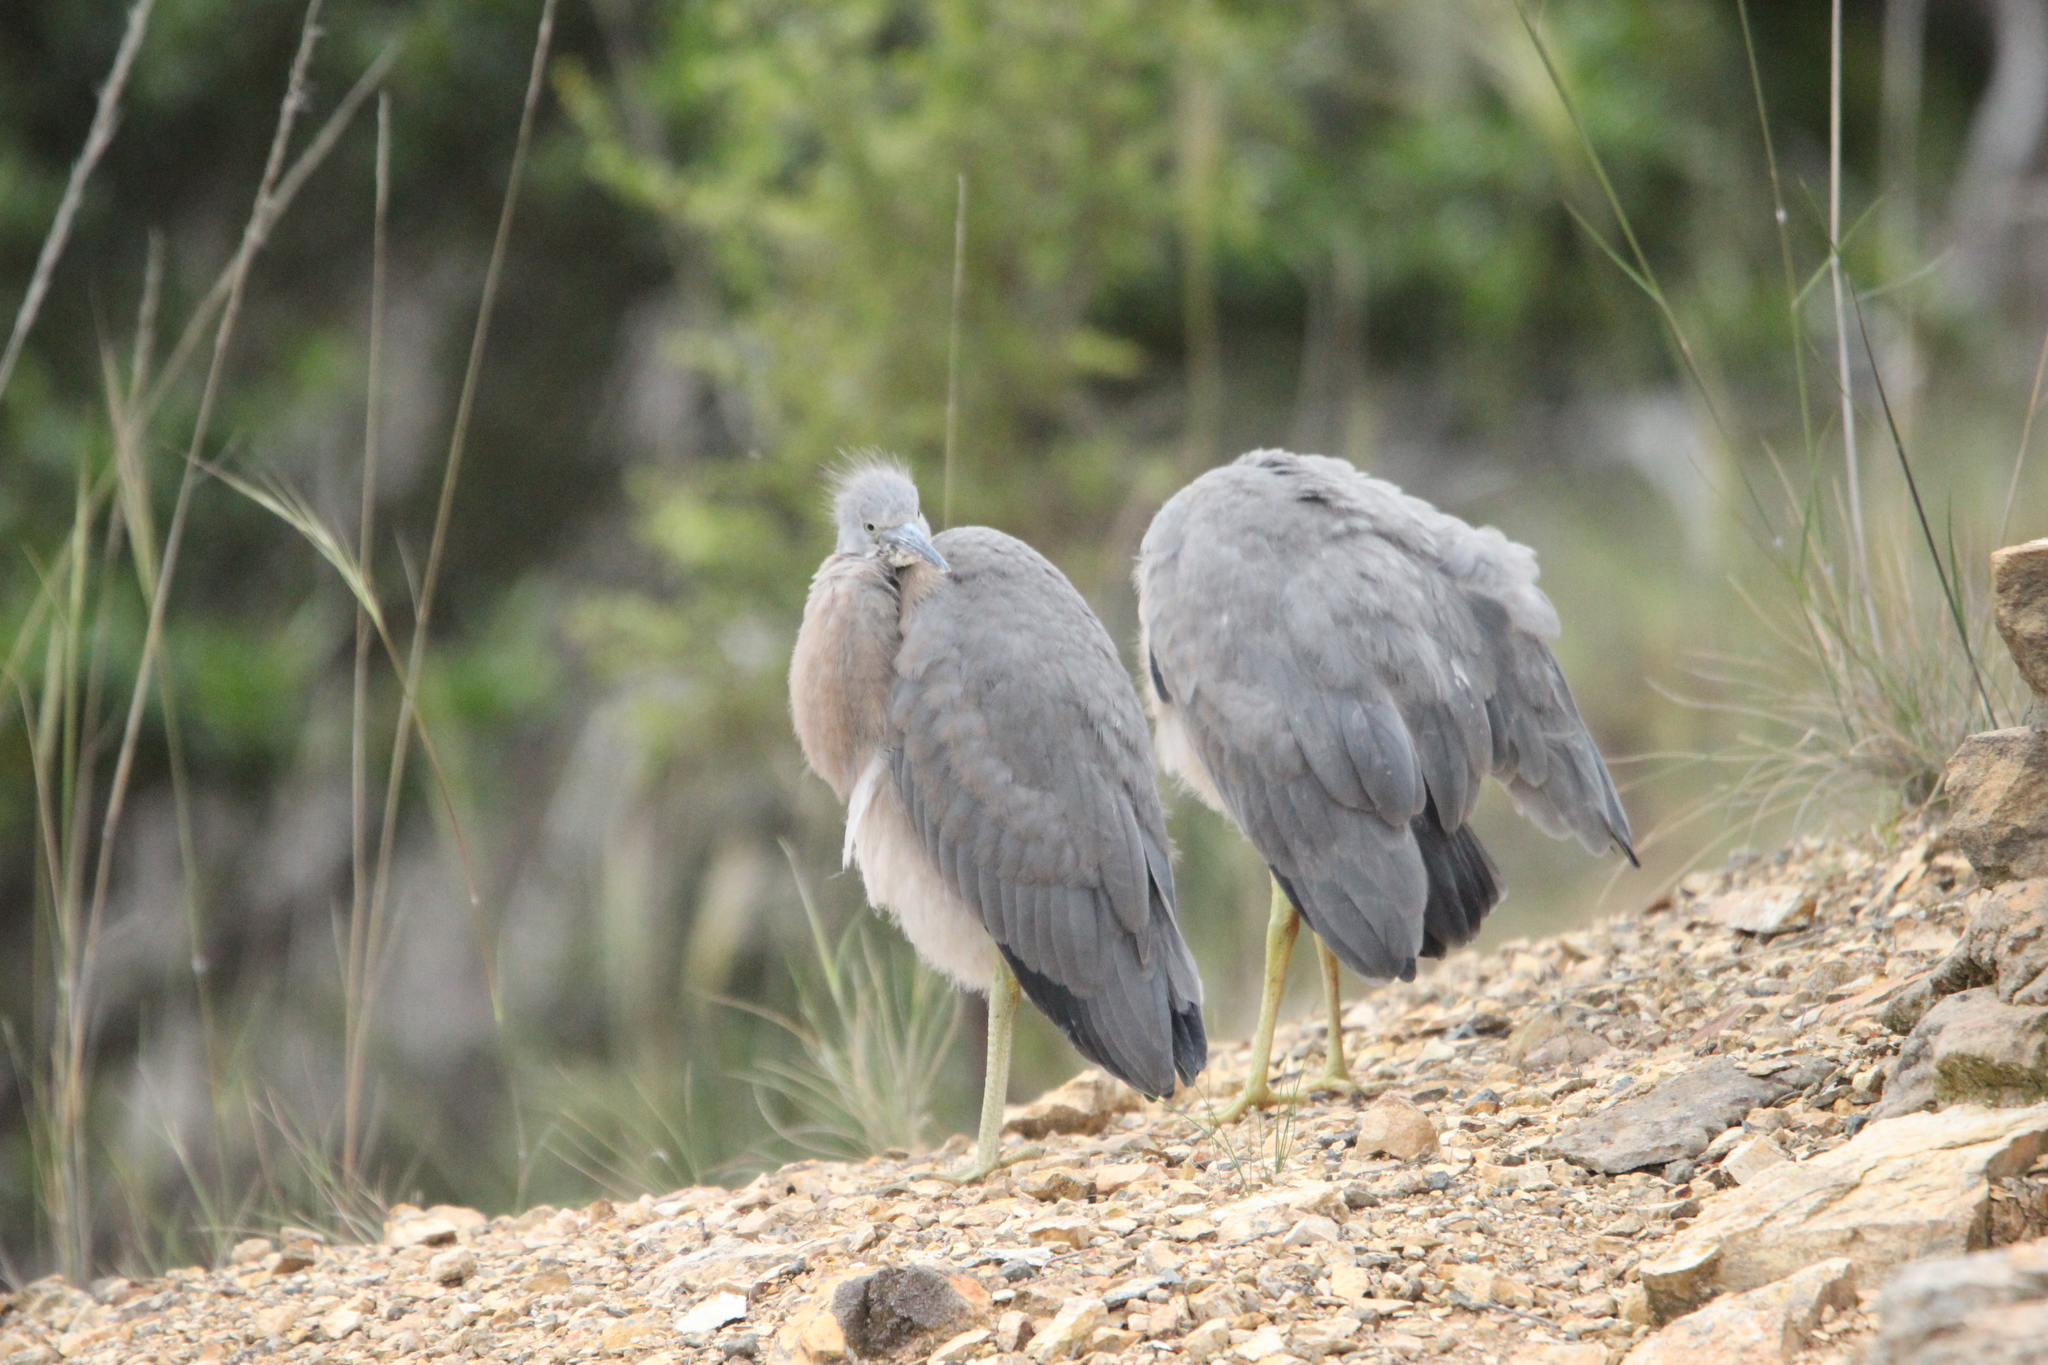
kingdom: Animalia
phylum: Chordata
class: Aves
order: Pelecaniformes
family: Ardeidae
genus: Egretta
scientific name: Egretta novaehollandiae
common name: White-faced heron
